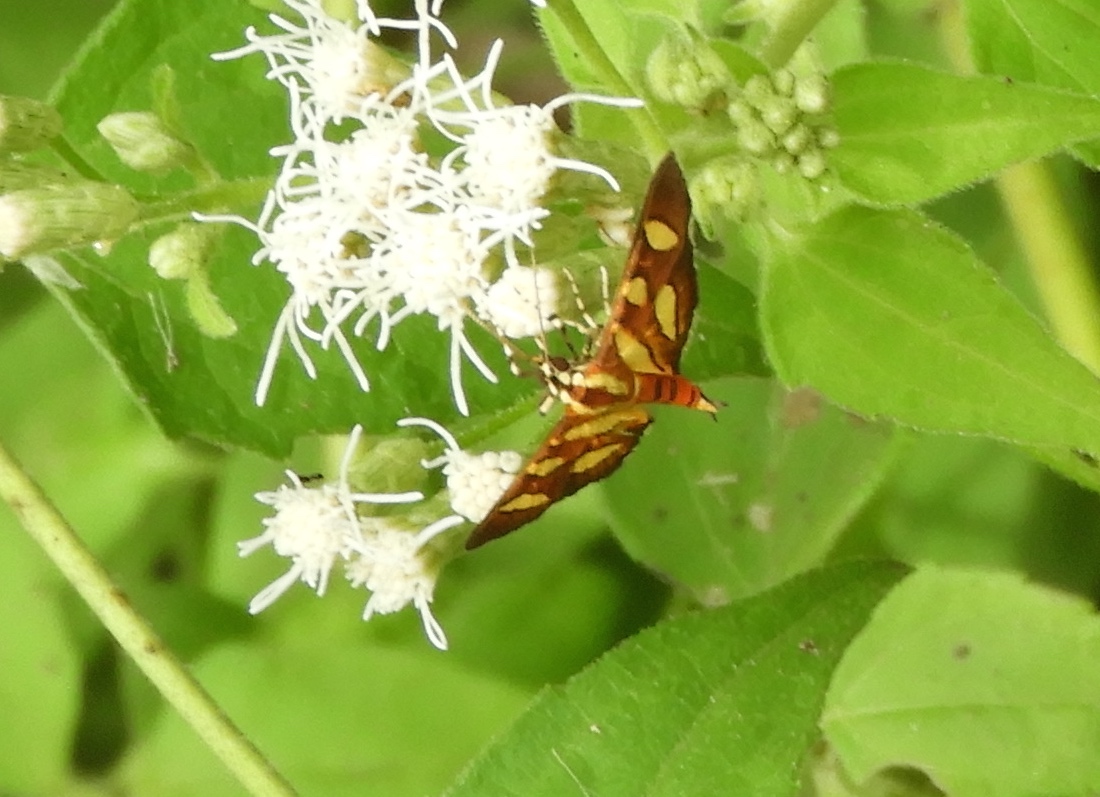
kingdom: Animalia
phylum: Arthropoda
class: Insecta
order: Lepidoptera
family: Crambidae
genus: Syngamia
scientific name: Syngamia florella
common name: Orange-spotted flower moth
